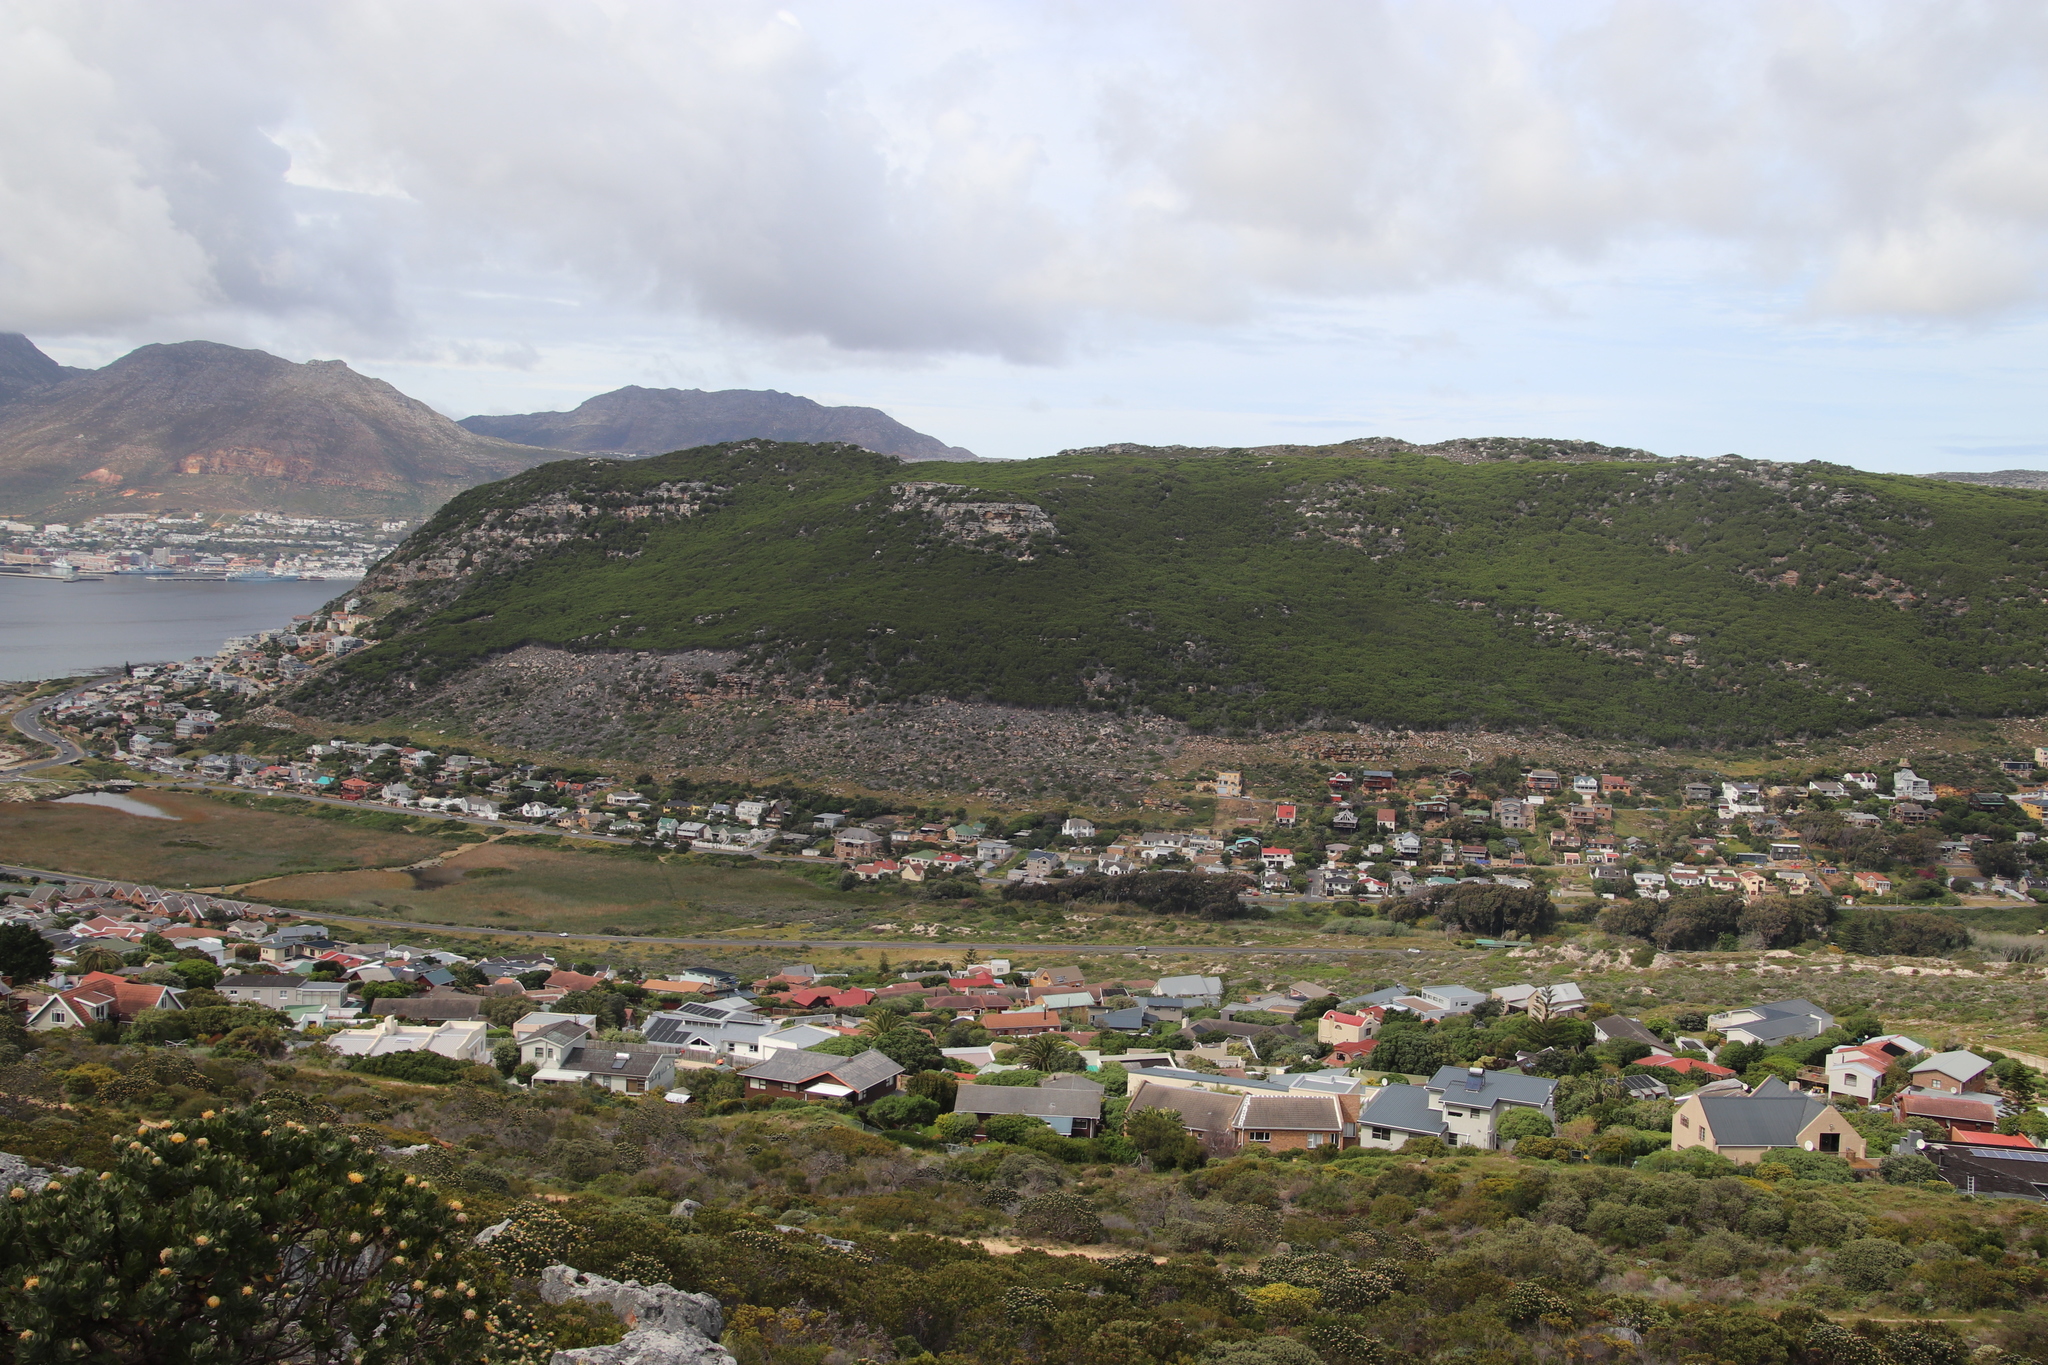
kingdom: Plantae
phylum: Tracheophyta
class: Magnoliopsida
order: Fabales
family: Fabaceae
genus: Acacia
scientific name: Acacia cyclops
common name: Coastal wattle
